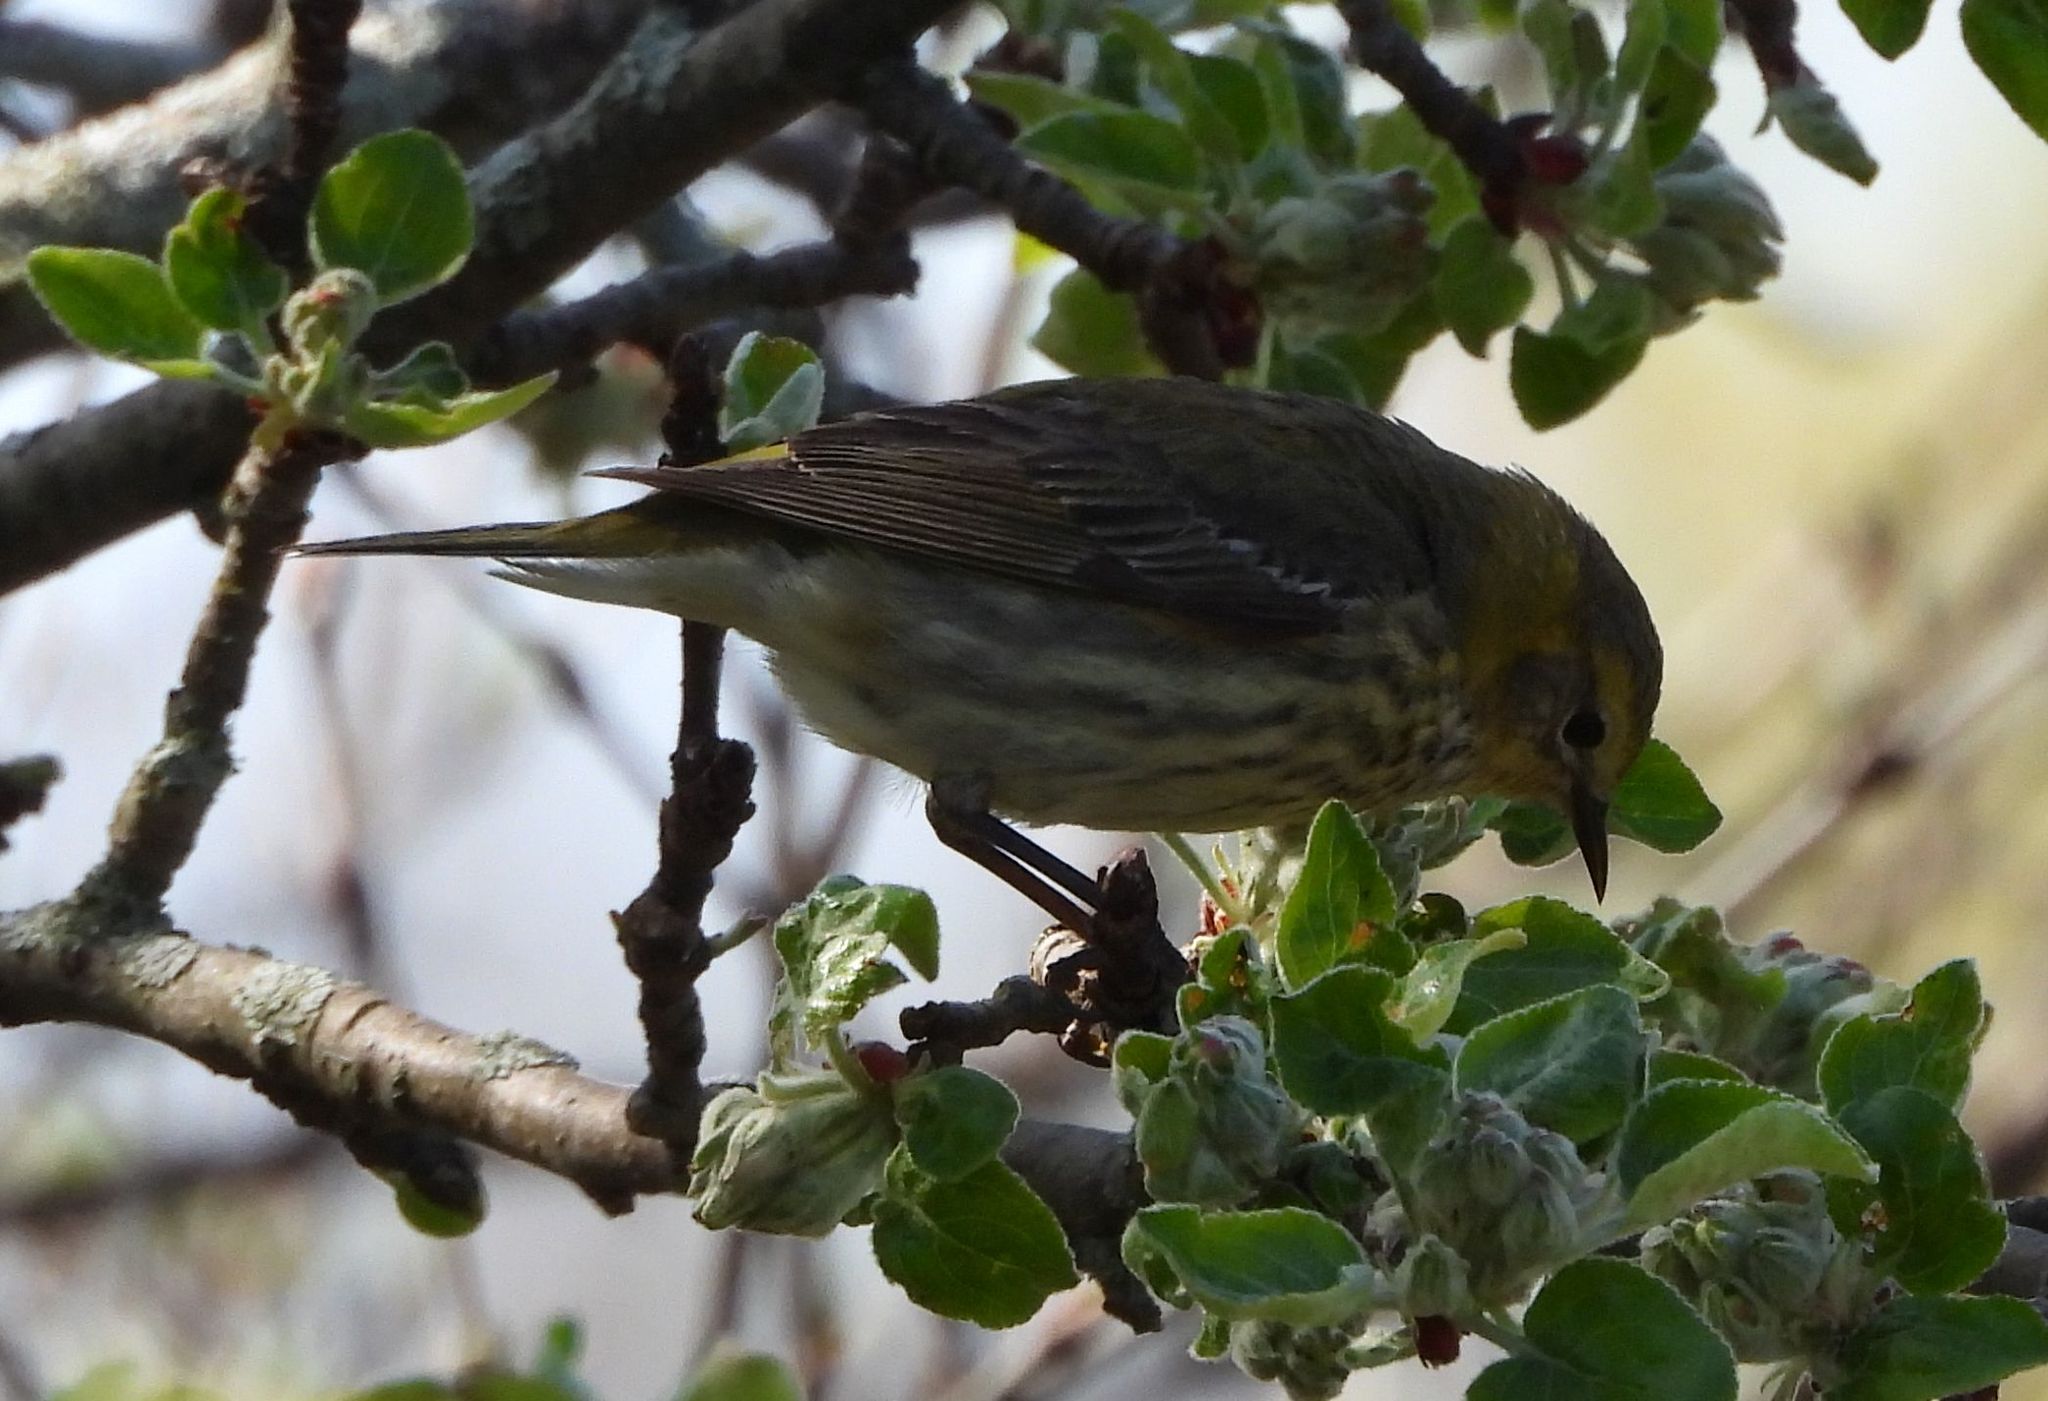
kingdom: Animalia
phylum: Chordata
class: Aves
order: Passeriformes
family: Parulidae
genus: Setophaga
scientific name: Setophaga tigrina
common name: Cape may warbler
